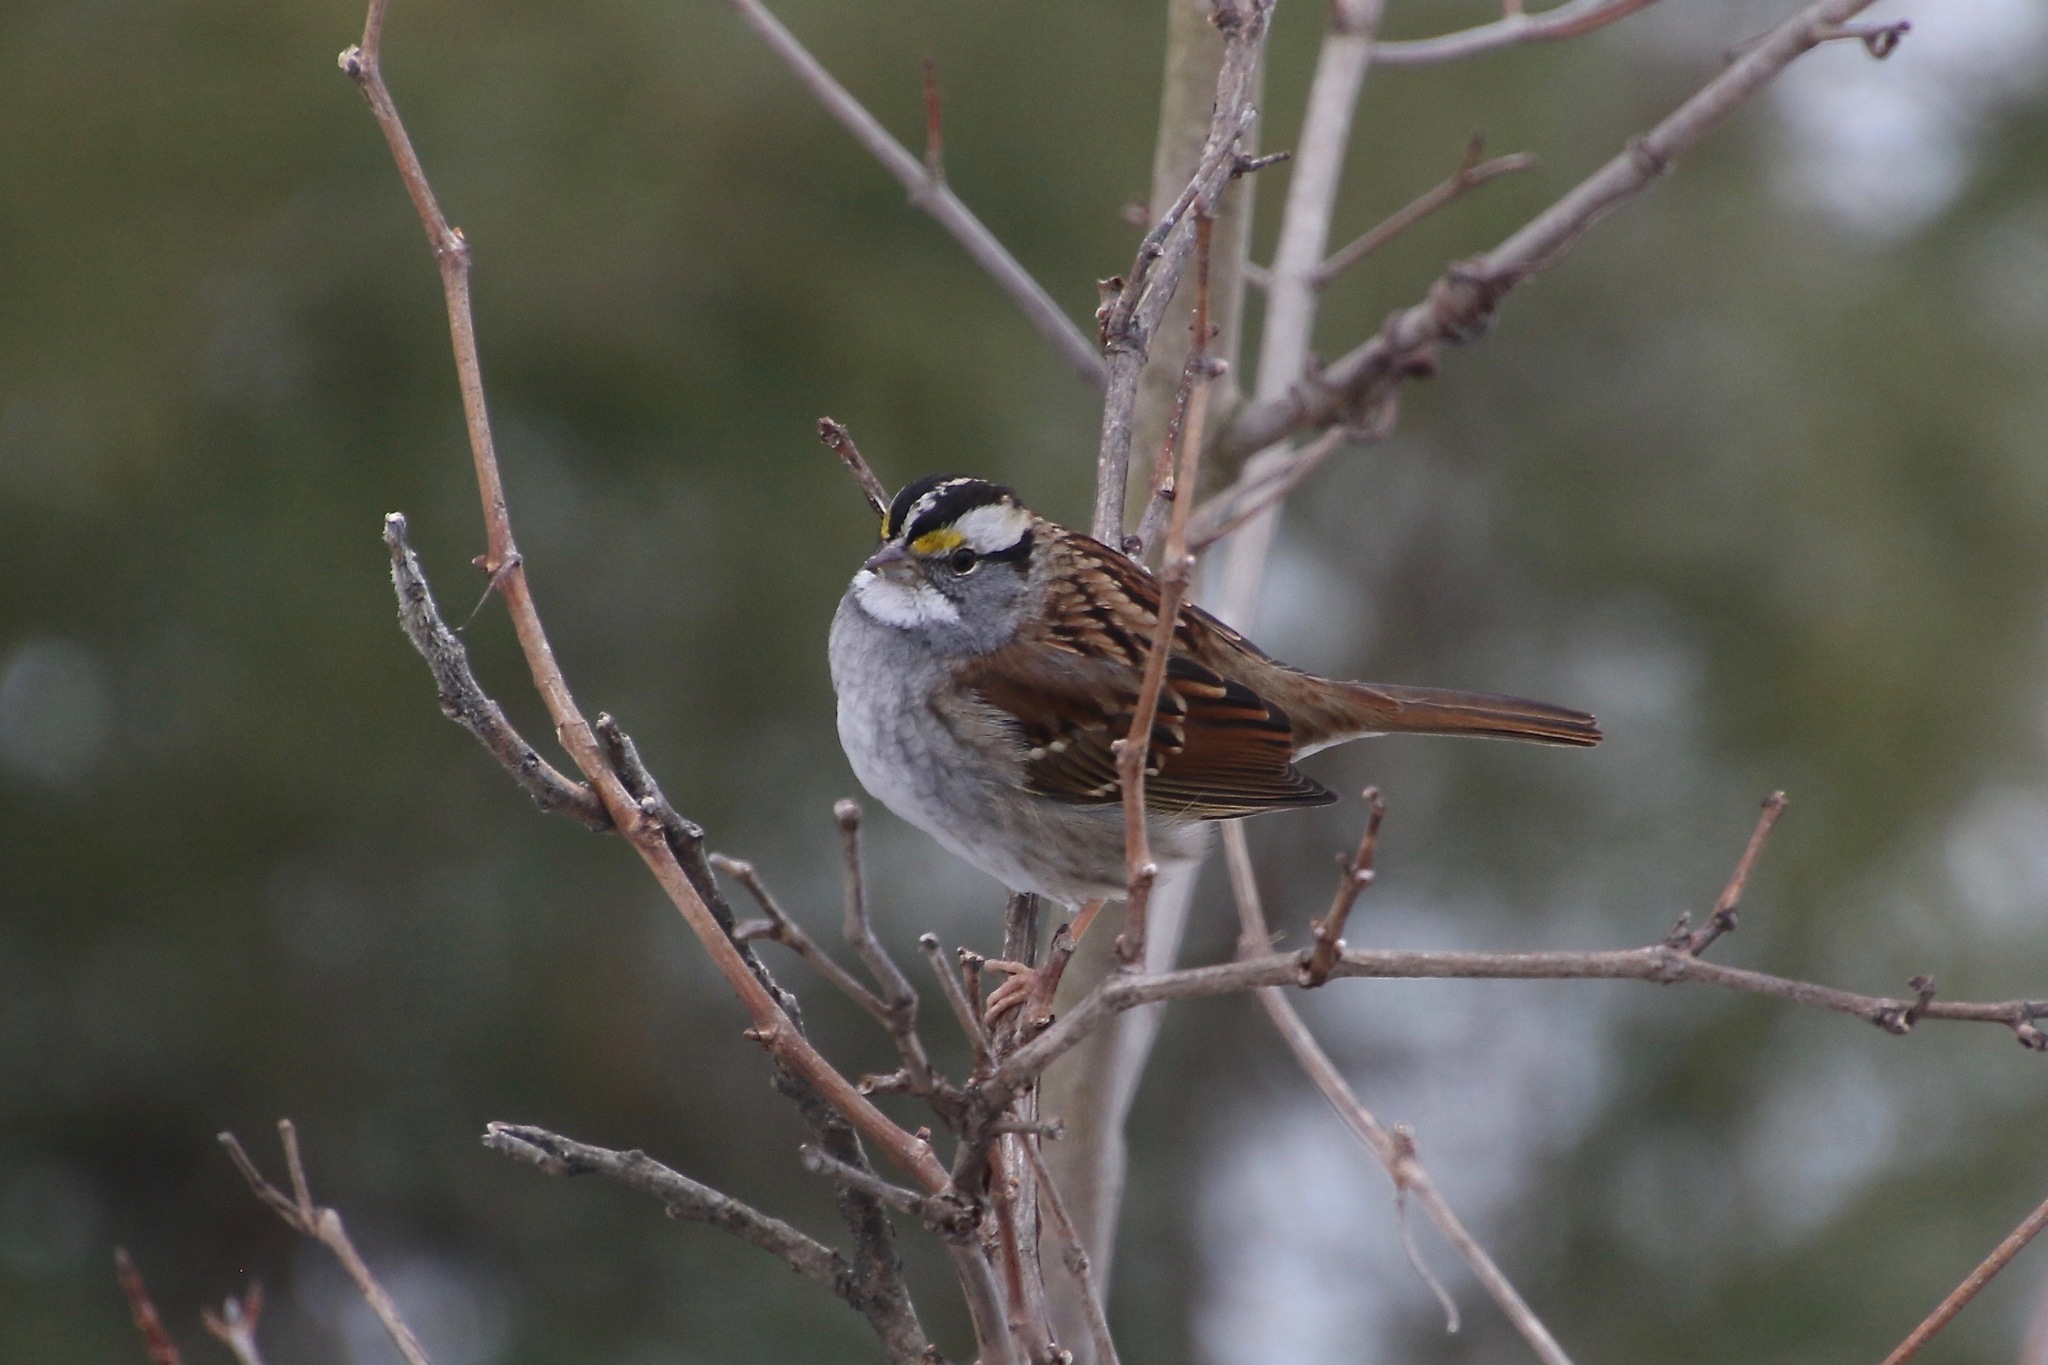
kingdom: Animalia
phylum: Chordata
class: Aves
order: Passeriformes
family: Passerellidae
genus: Zonotrichia
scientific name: Zonotrichia albicollis
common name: White-throated sparrow
